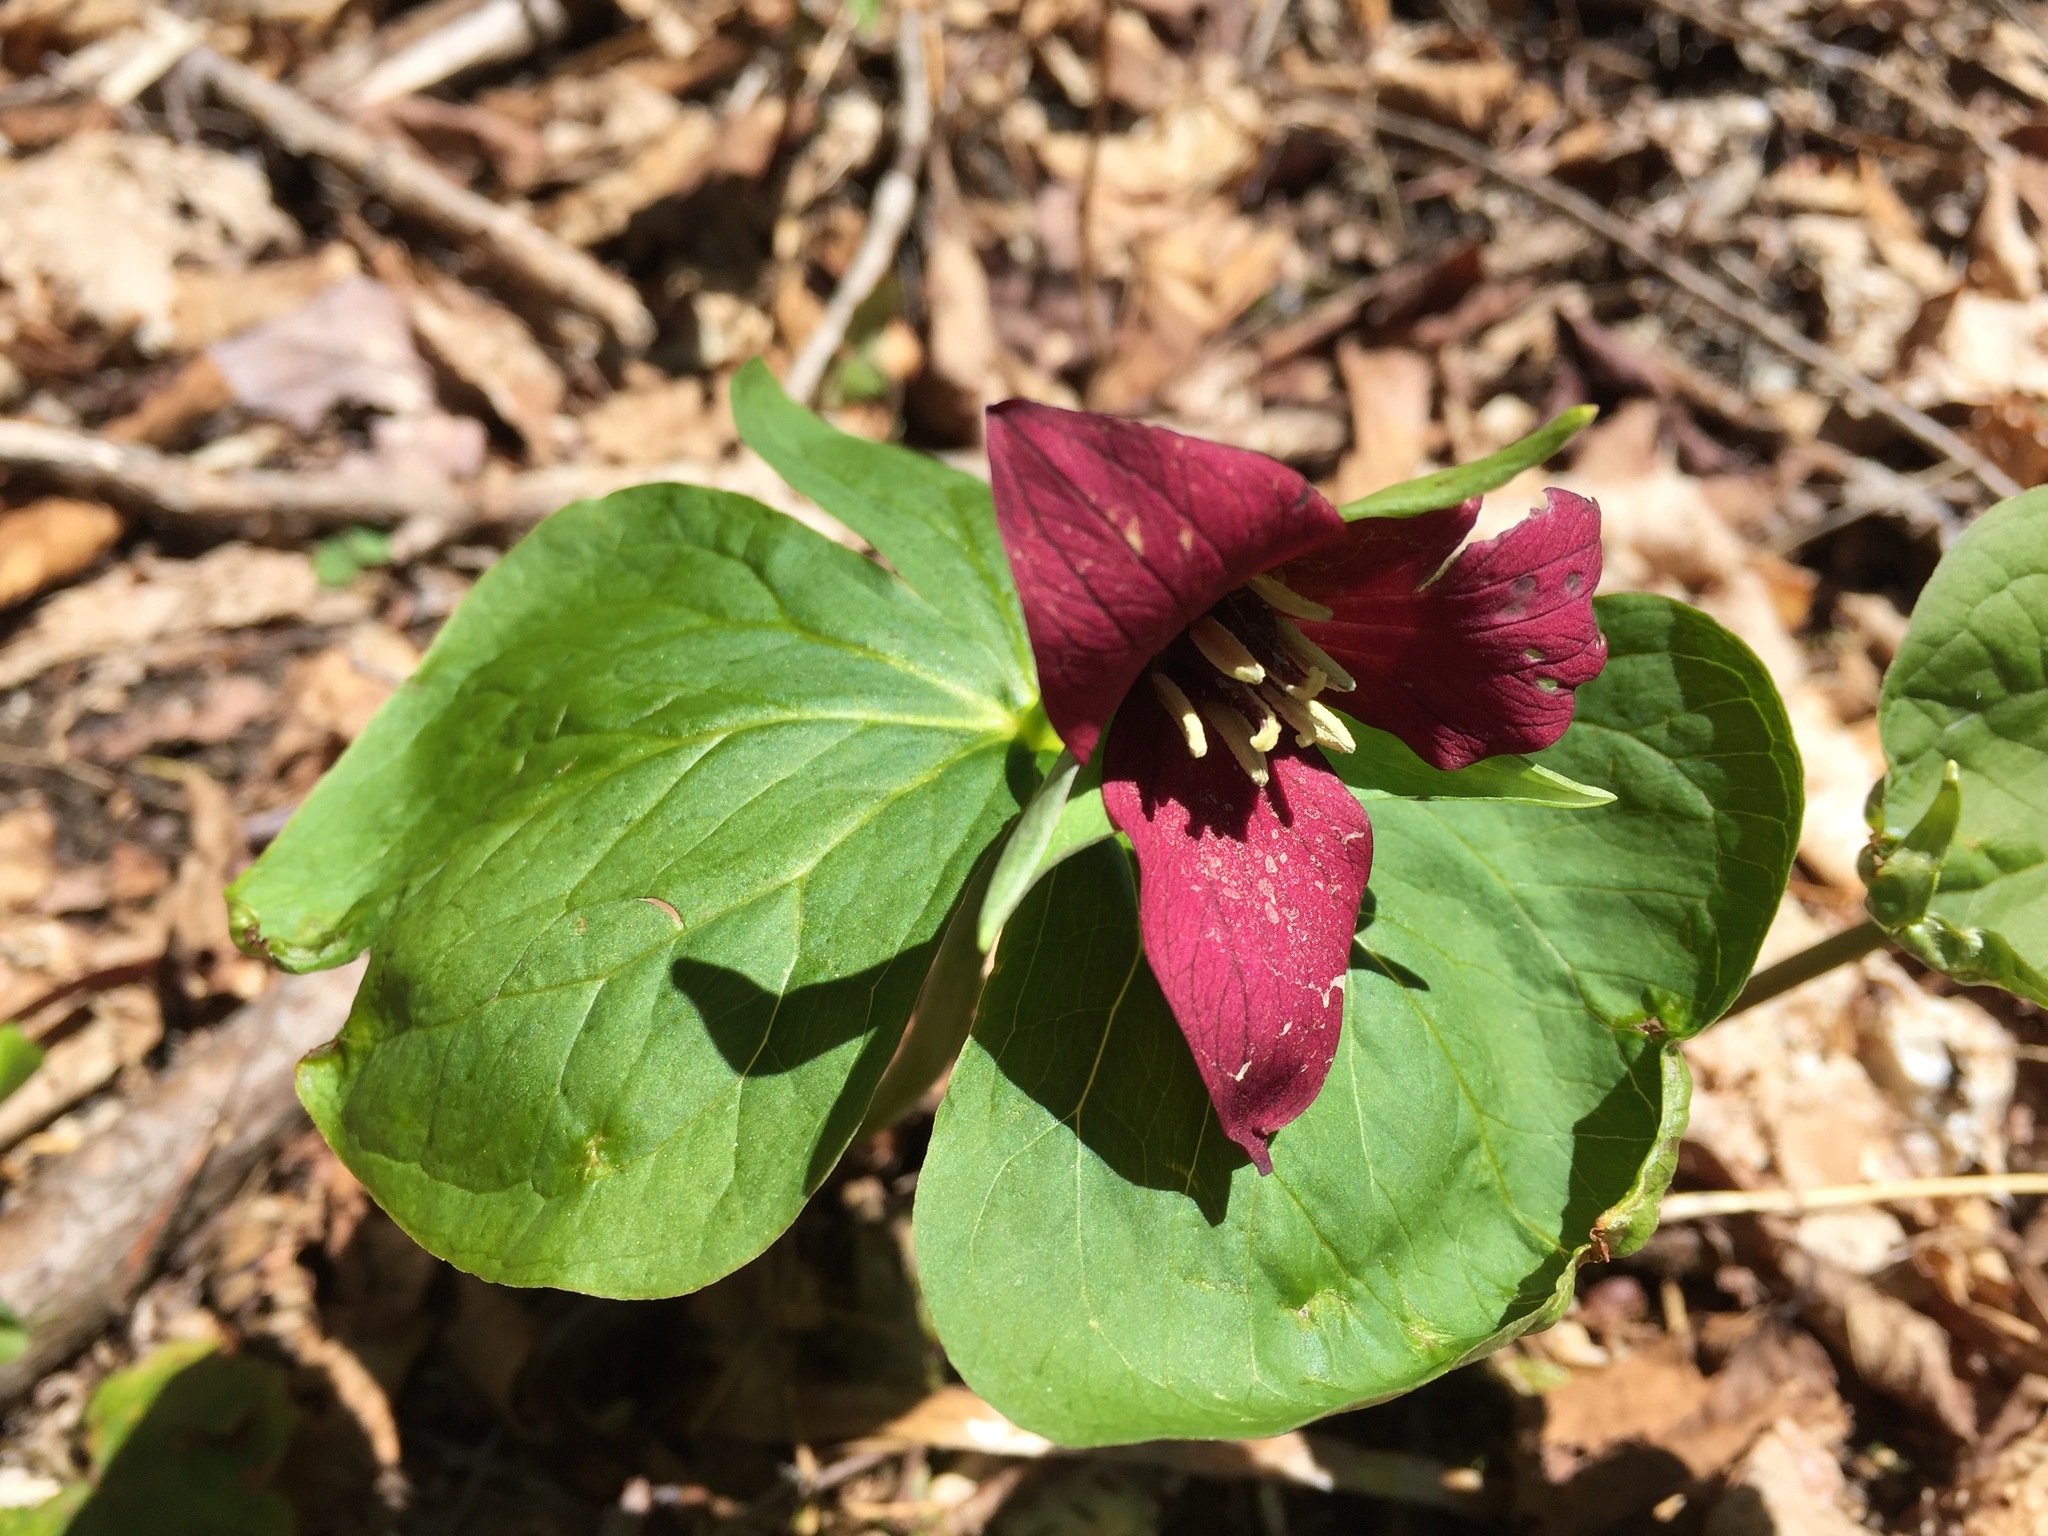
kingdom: Plantae
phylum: Tracheophyta
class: Liliopsida
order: Liliales
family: Melanthiaceae
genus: Trillium
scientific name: Trillium erectum
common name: Purple trillium
